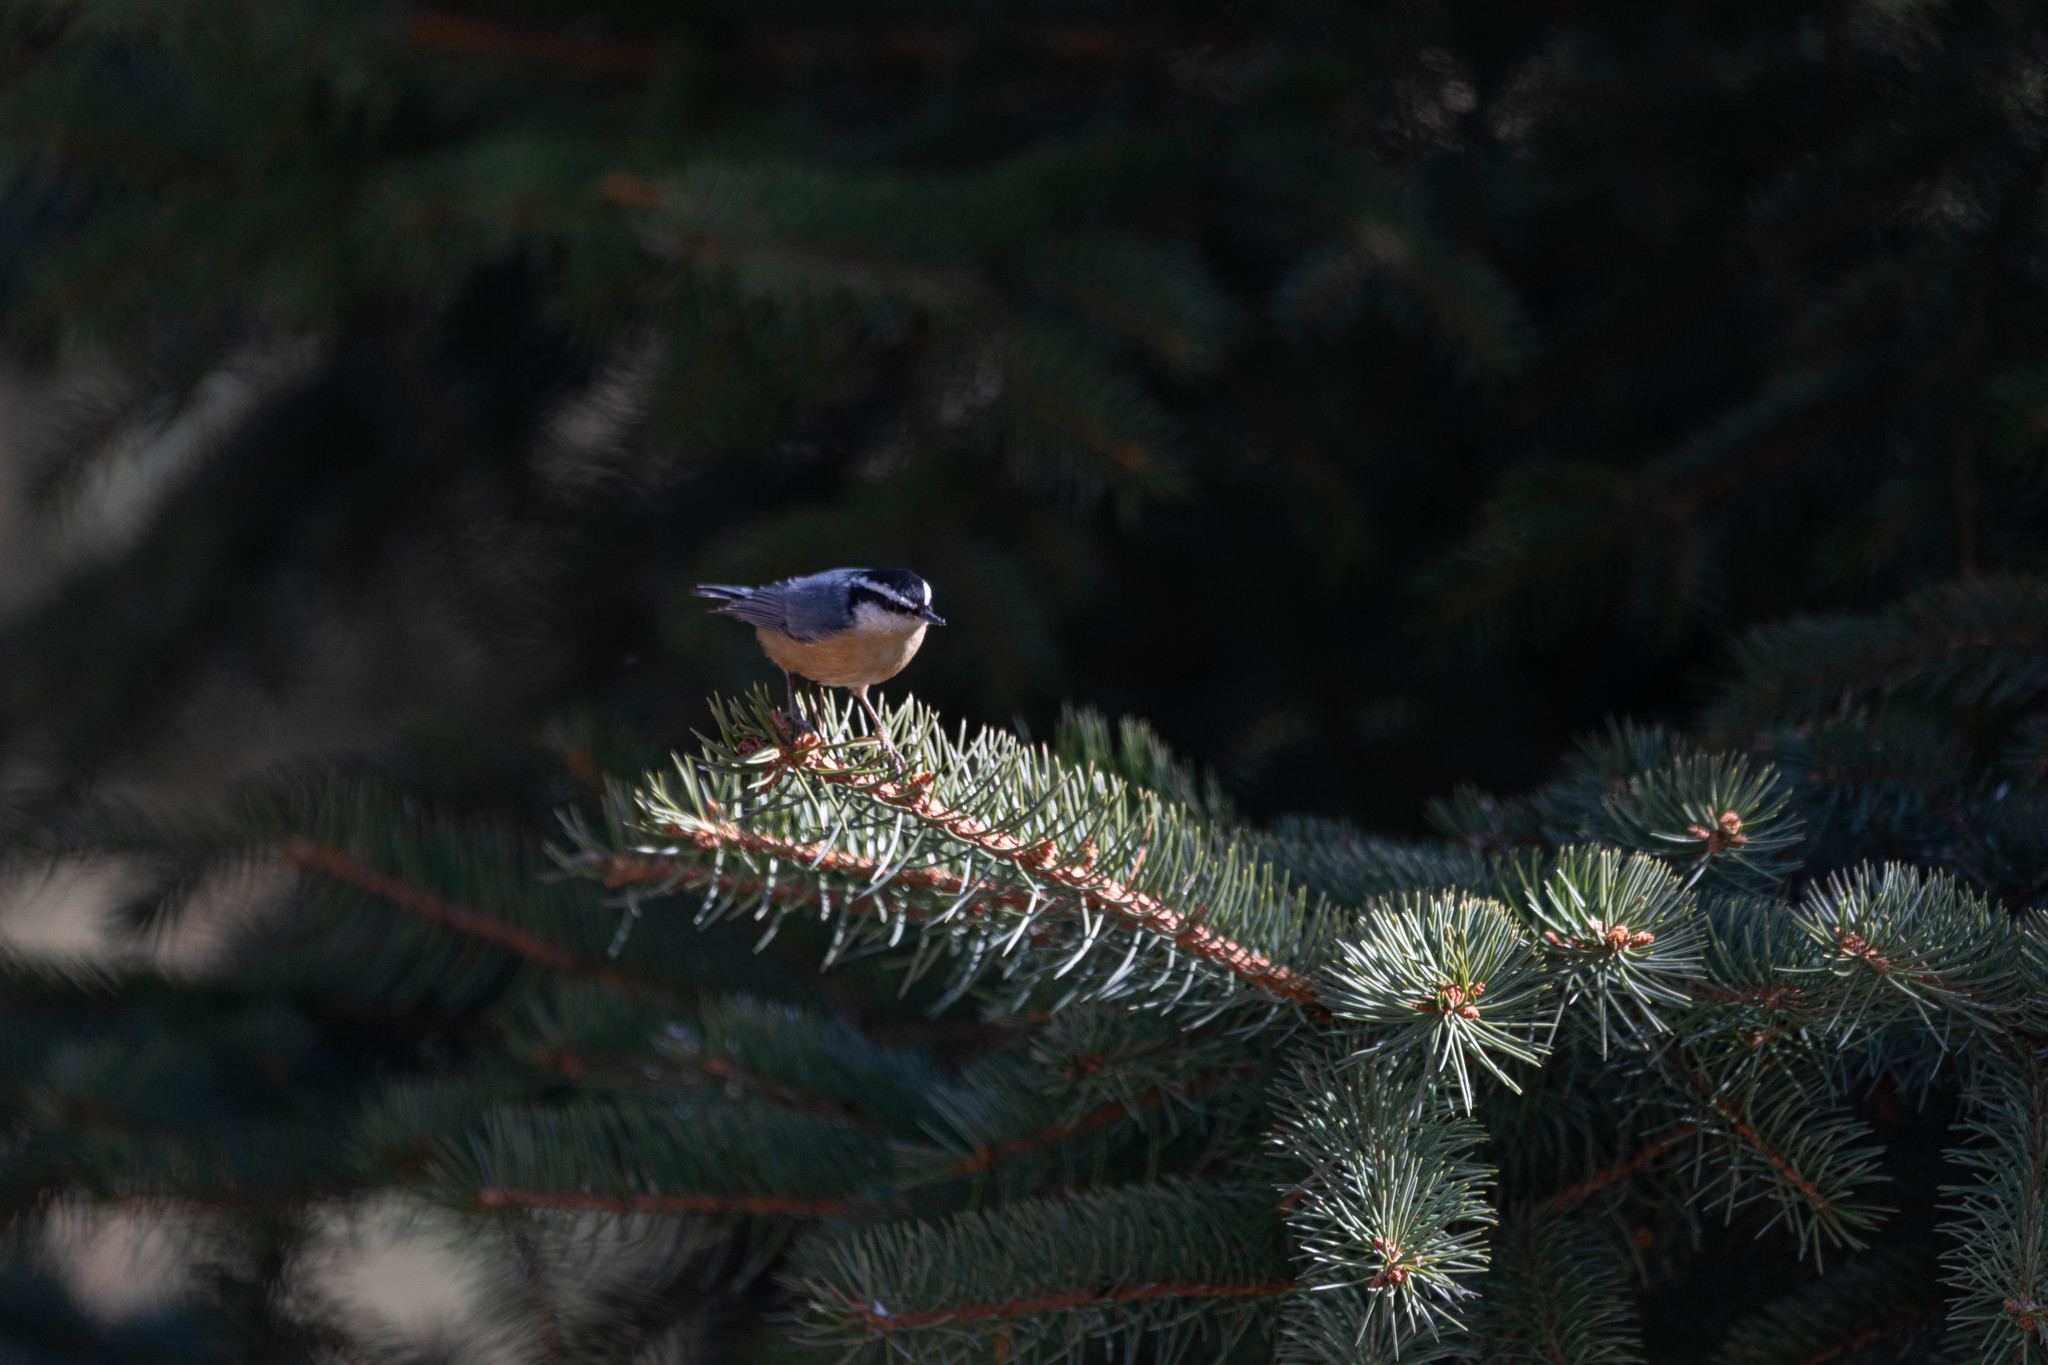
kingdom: Animalia
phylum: Chordata
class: Aves
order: Passeriformes
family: Sittidae
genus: Sitta
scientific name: Sitta canadensis
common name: Red-breasted nuthatch
